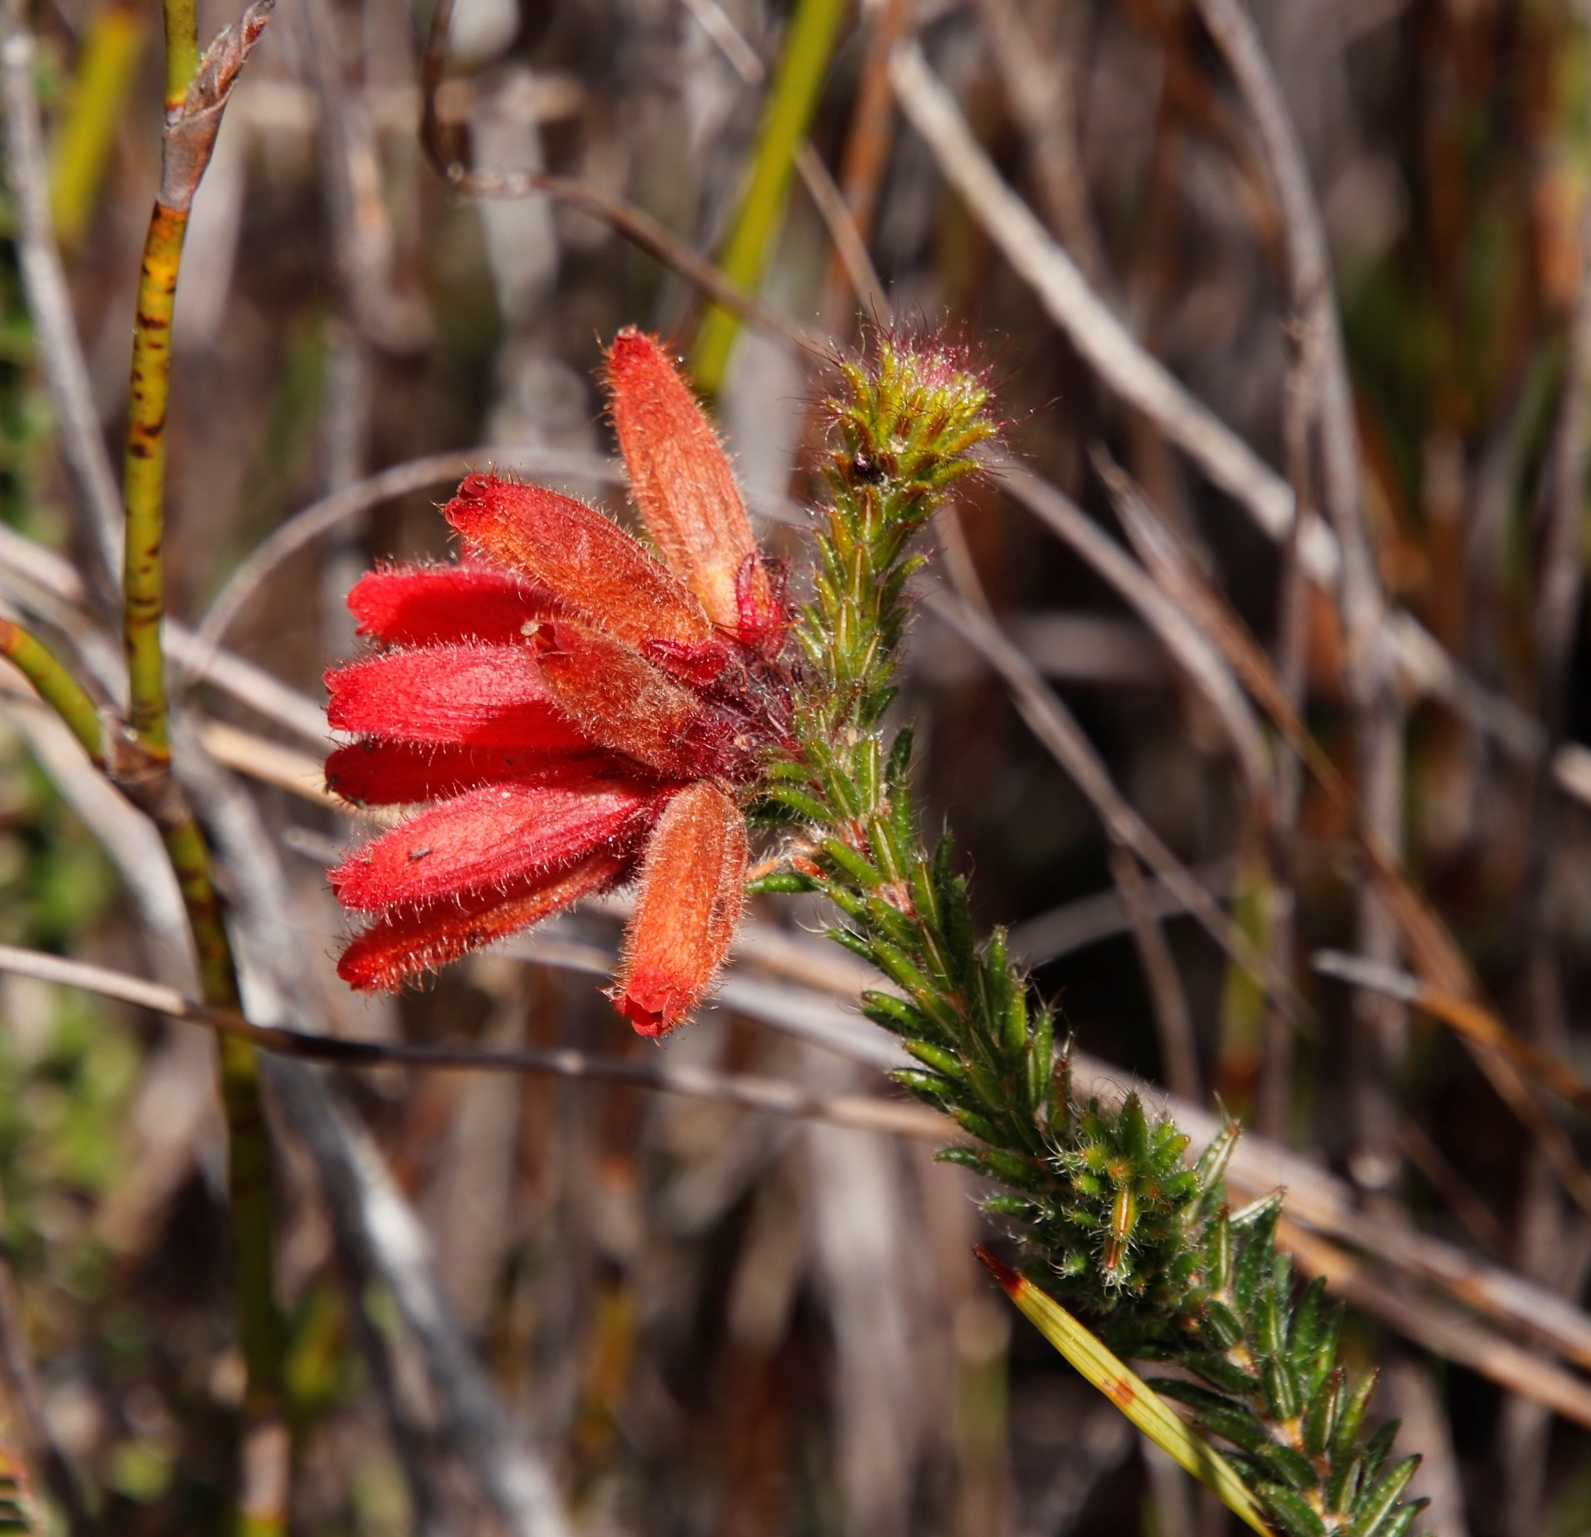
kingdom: Plantae
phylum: Tracheophyta
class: Magnoliopsida
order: Ericales
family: Ericaceae
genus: Erica
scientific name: Erica cerinthoides
